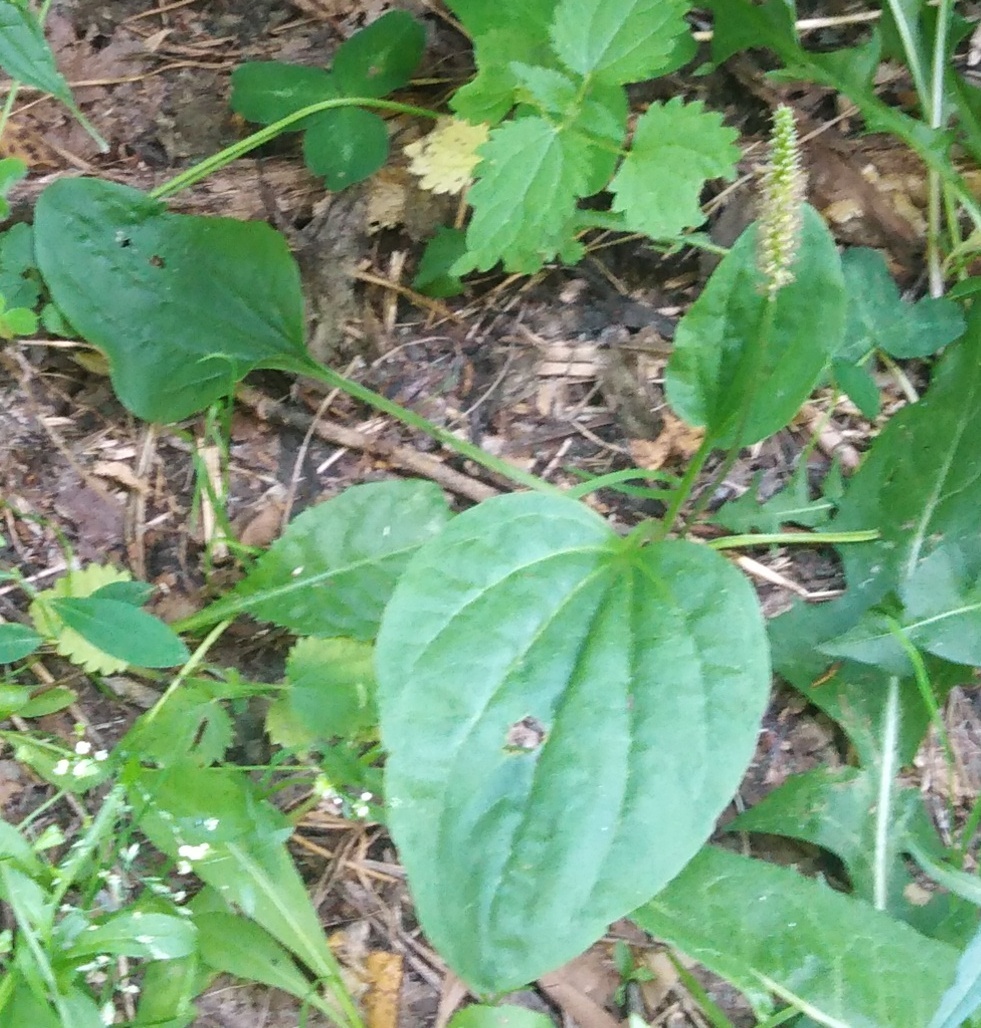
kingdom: Plantae
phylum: Tracheophyta
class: Magnoliopsida
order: Lamiales
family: Plantaginaceae
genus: Plantago
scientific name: Plantago major
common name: Common plantain
